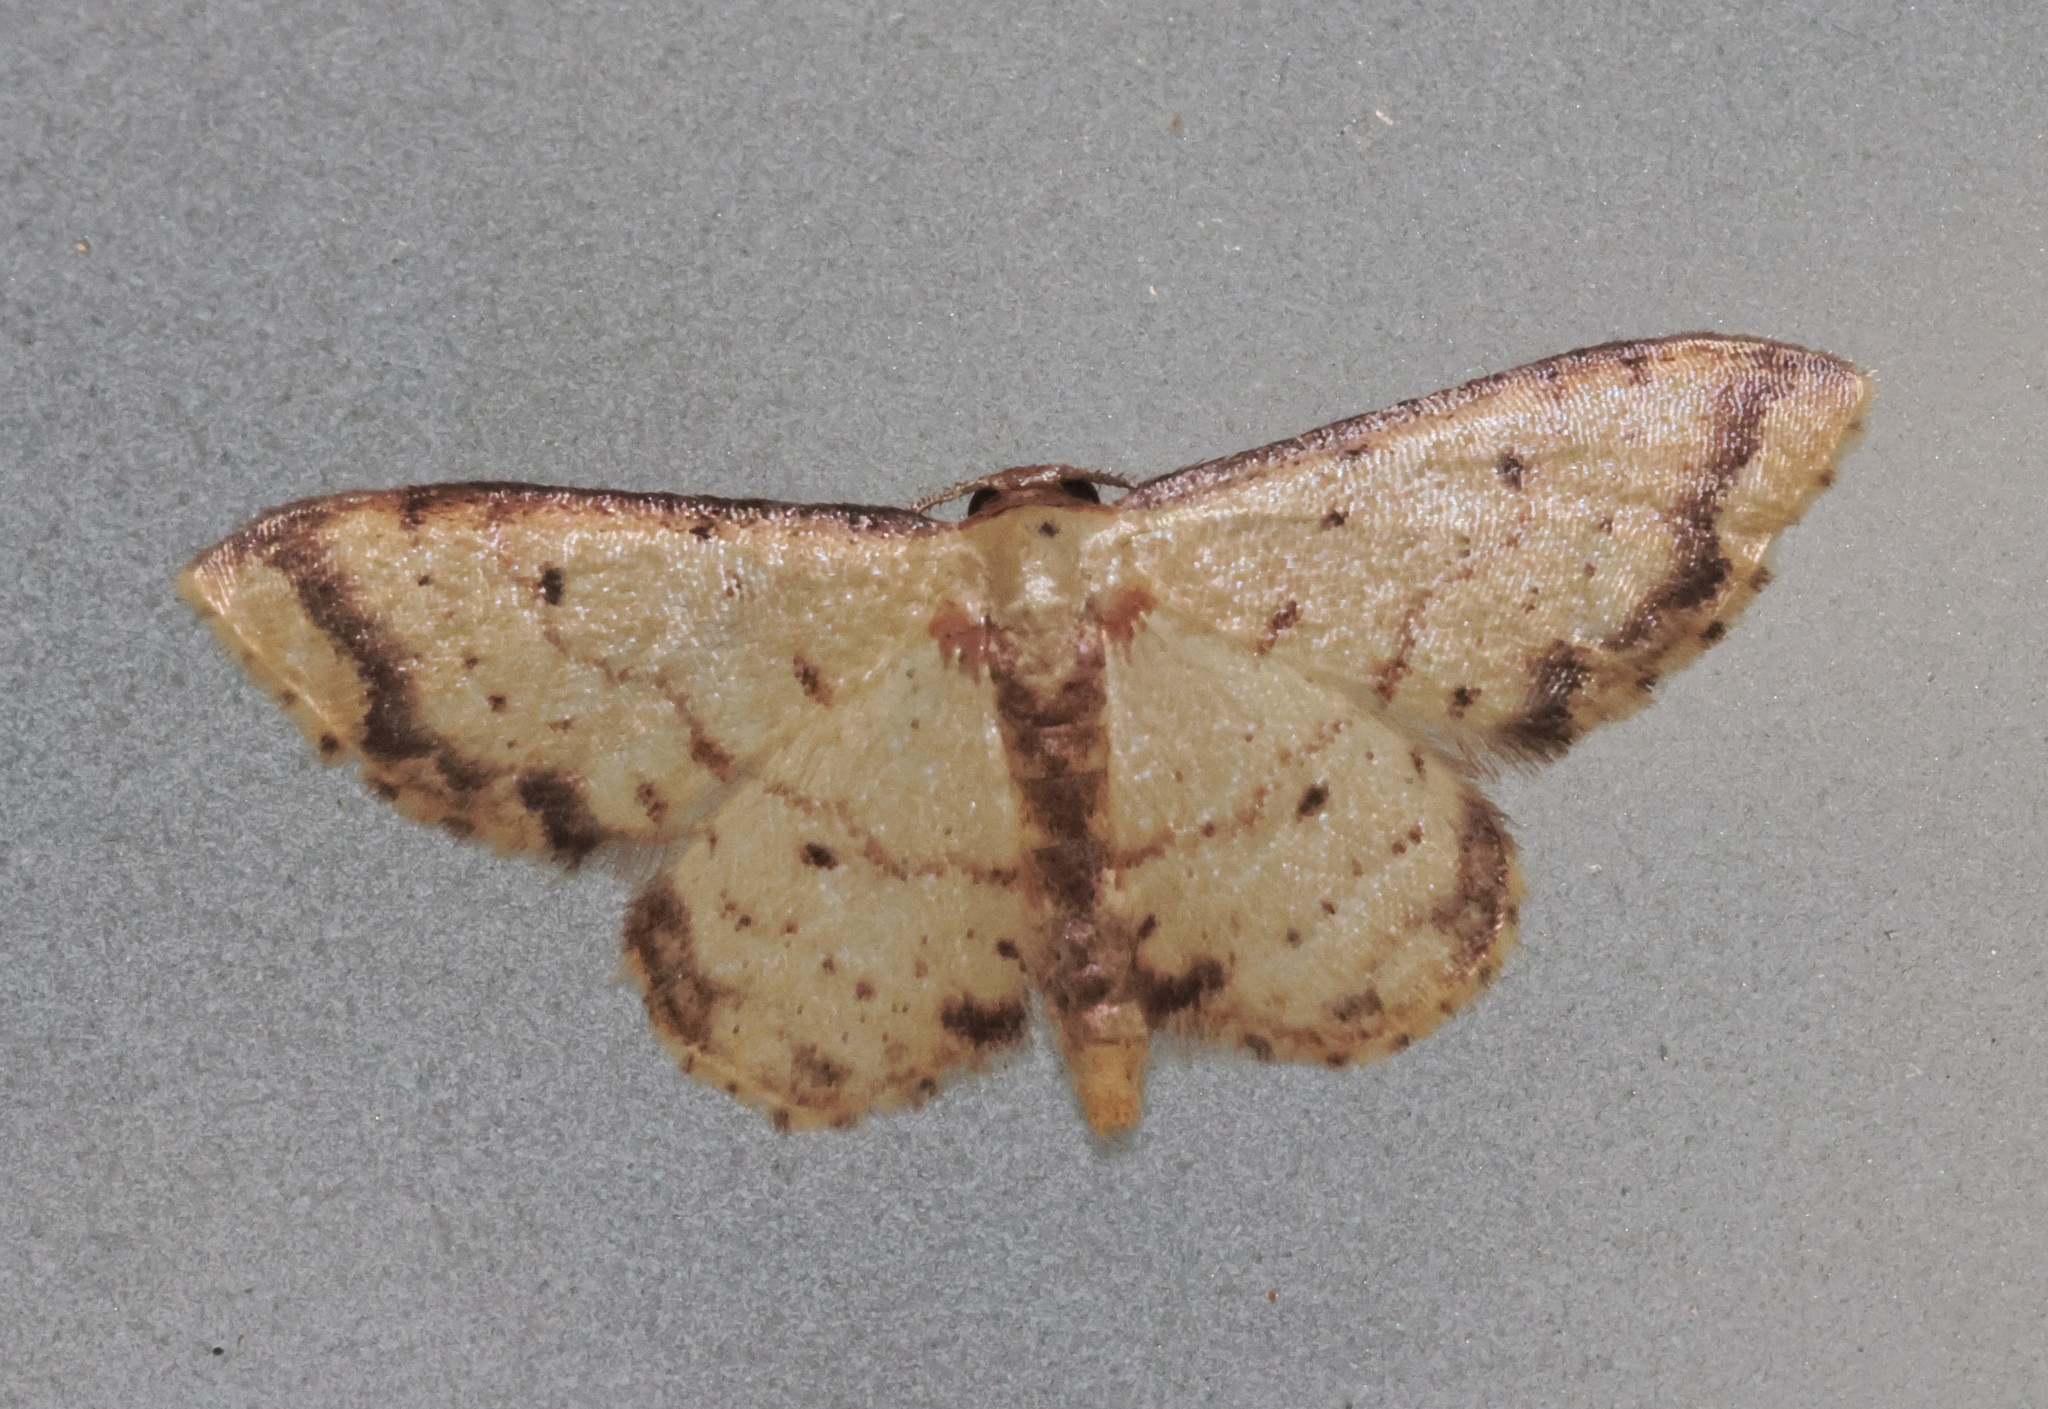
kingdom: Animalia
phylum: Arthropoda
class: Insecta
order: Lepidoptera
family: Geometridae
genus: Idaea
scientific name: Idaea impexa
